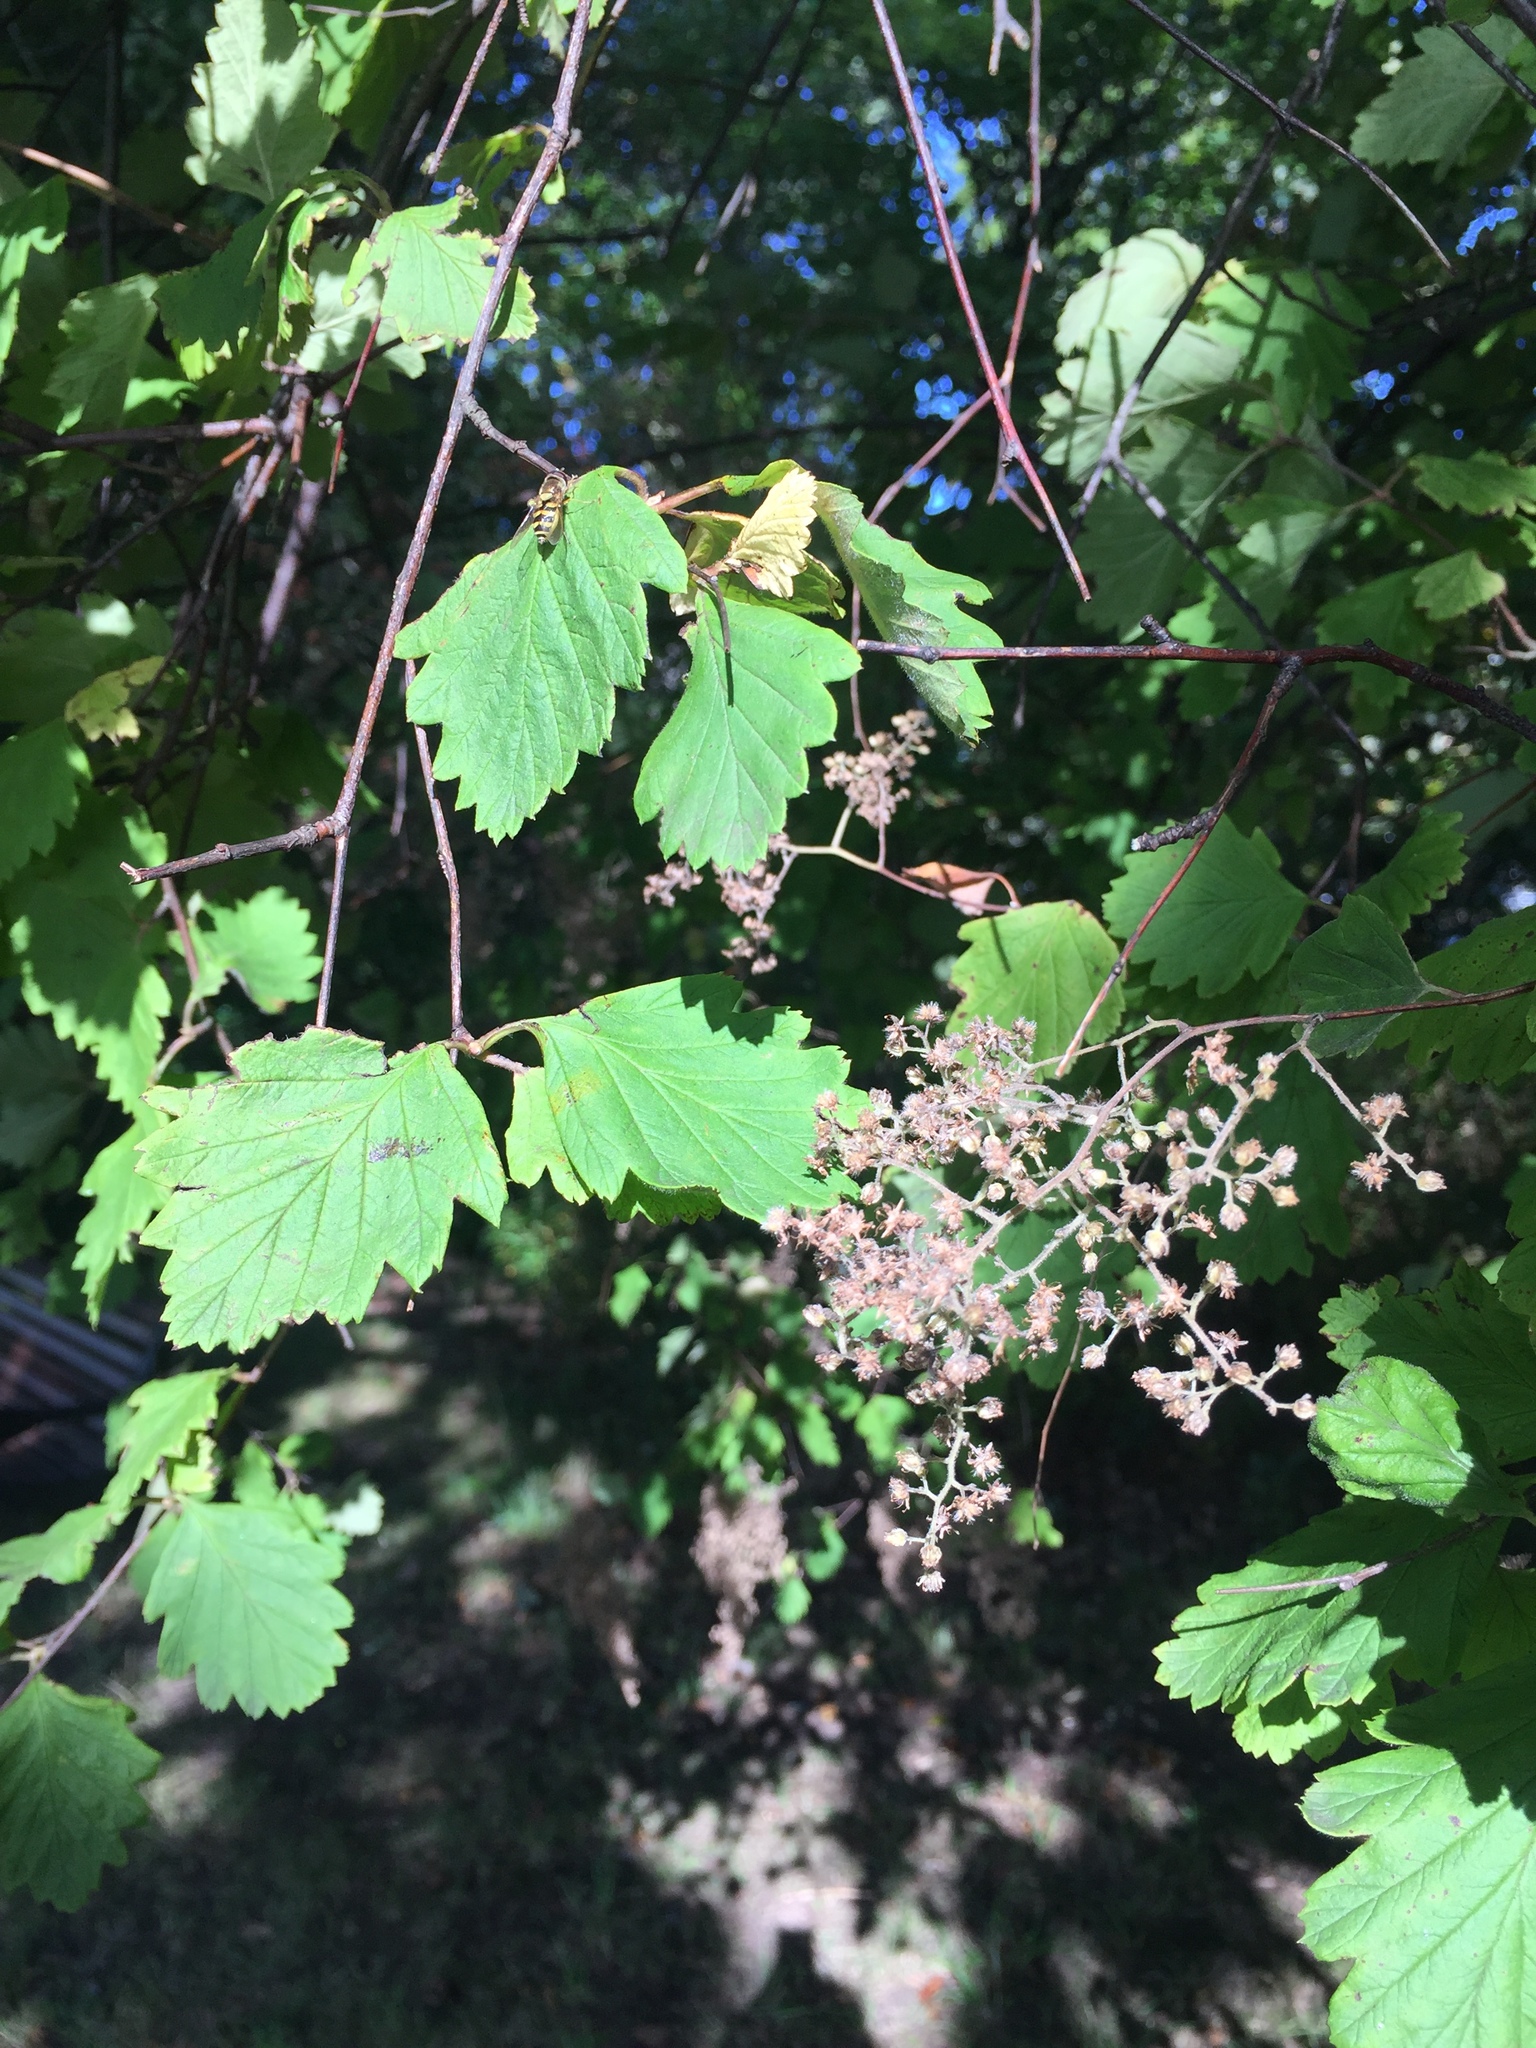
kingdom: Plantae
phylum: Tracheophyta
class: Magnoliopsida
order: Rosales
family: Rosaceae
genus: Holodiscus
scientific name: Holodiscus discolor
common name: Oceanspray
